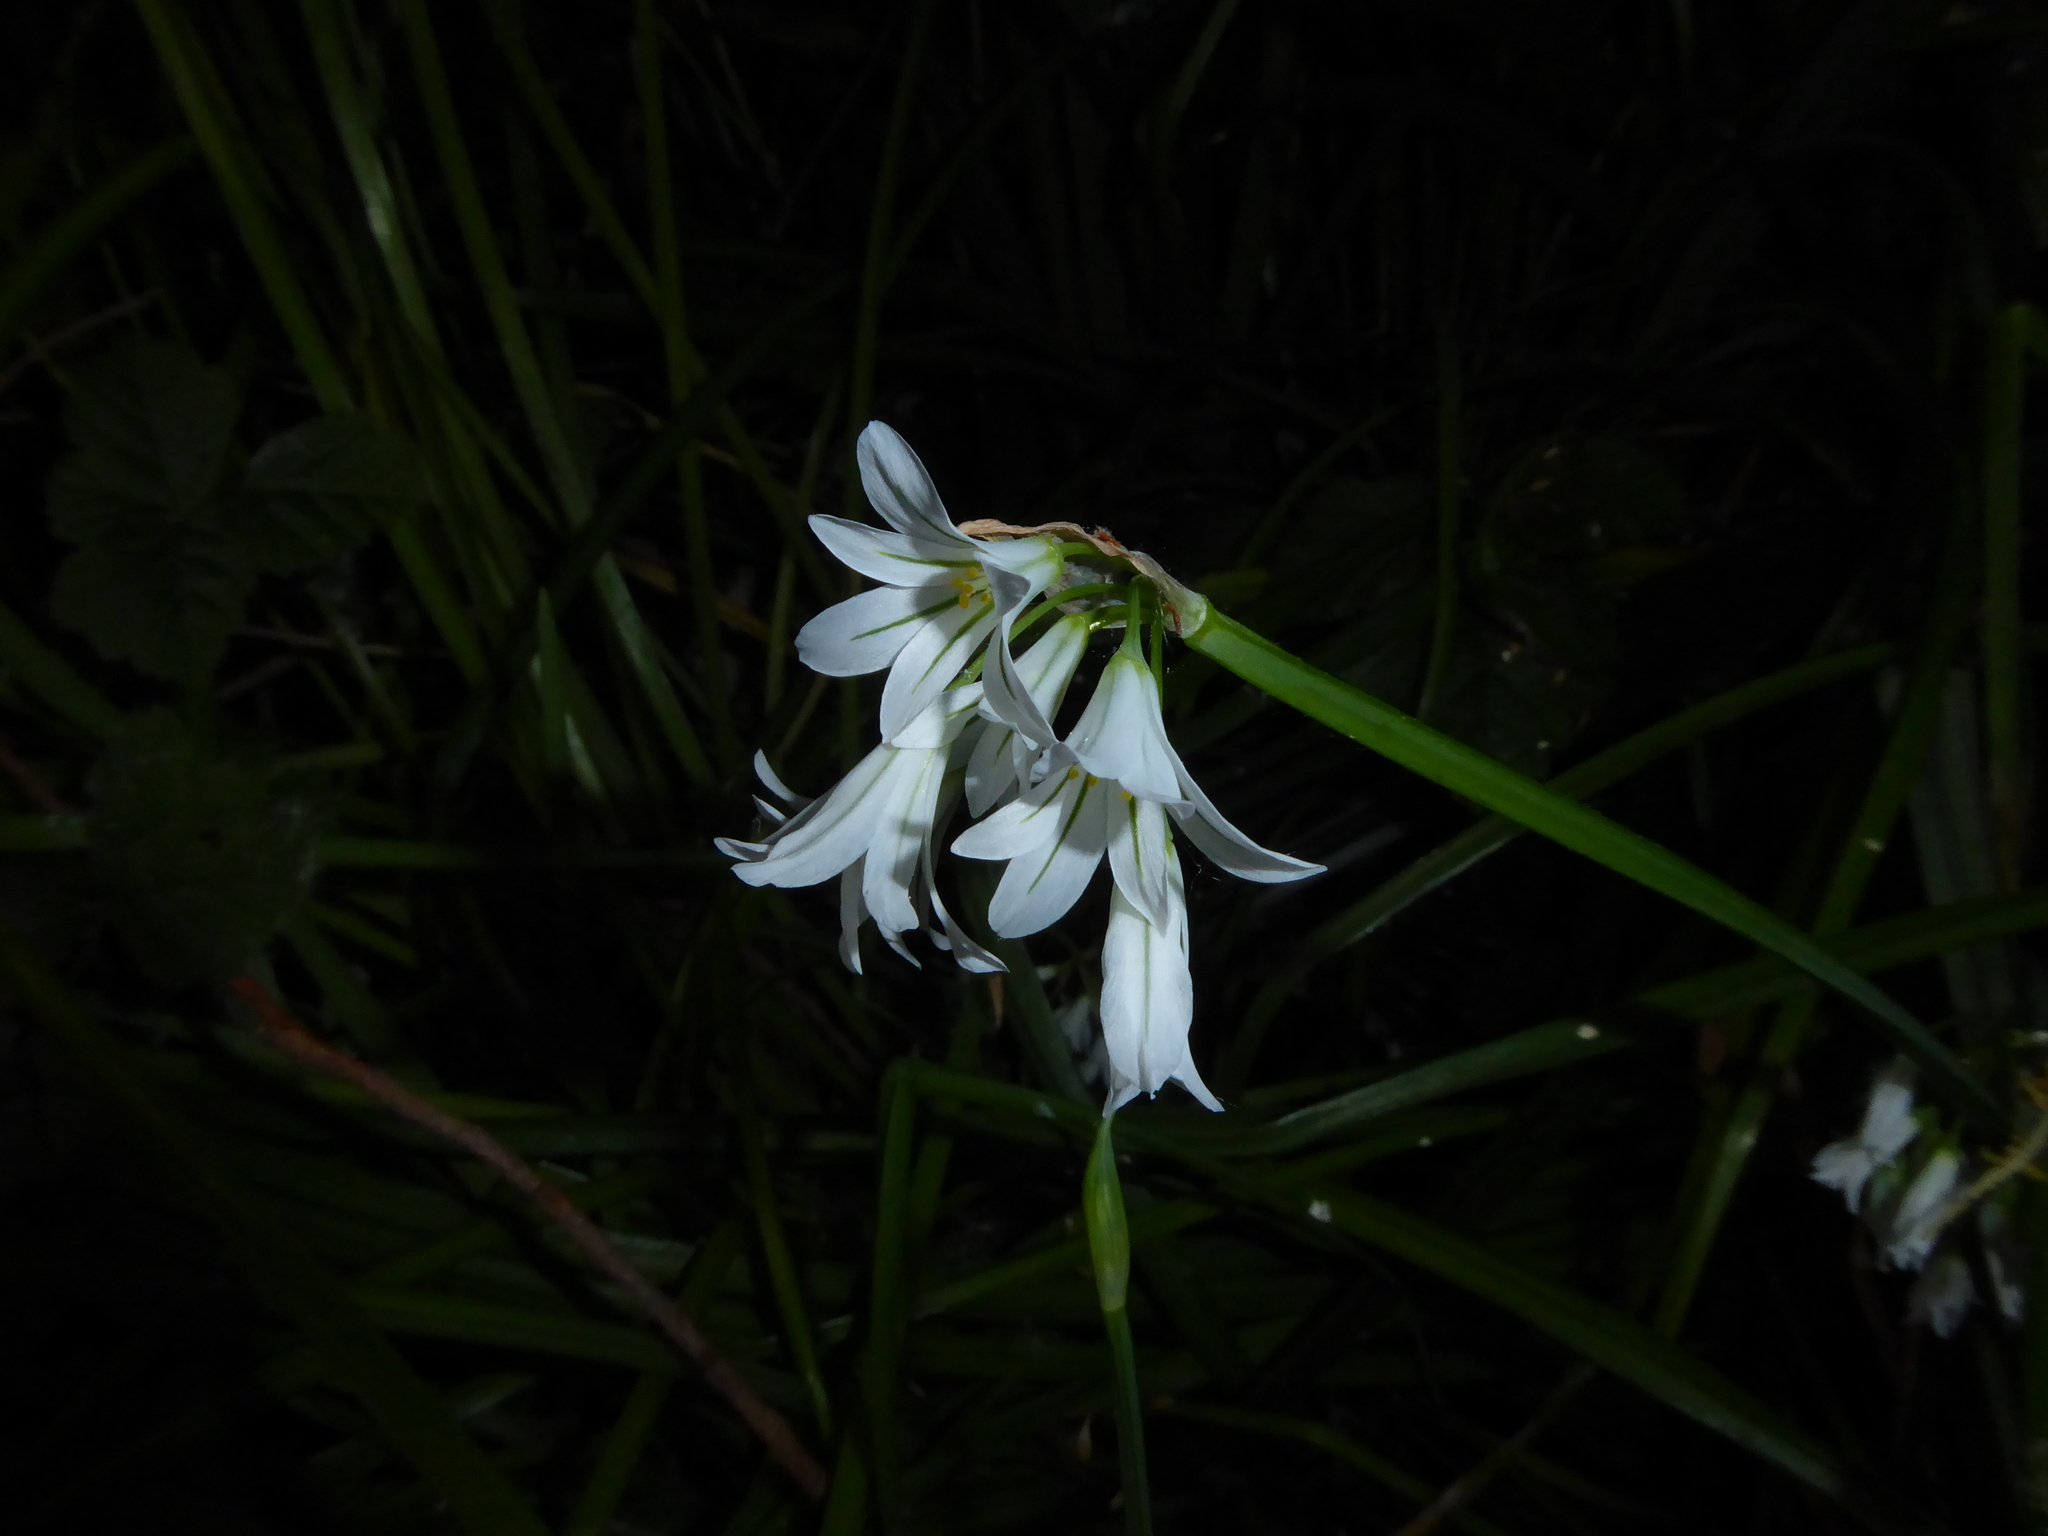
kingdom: Plantae
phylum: Tracheophyta
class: Liliopsida
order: Asparagales
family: Amaryllidaceae
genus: Allium
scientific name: Allium triquetrum
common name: Three-cornered garlic
